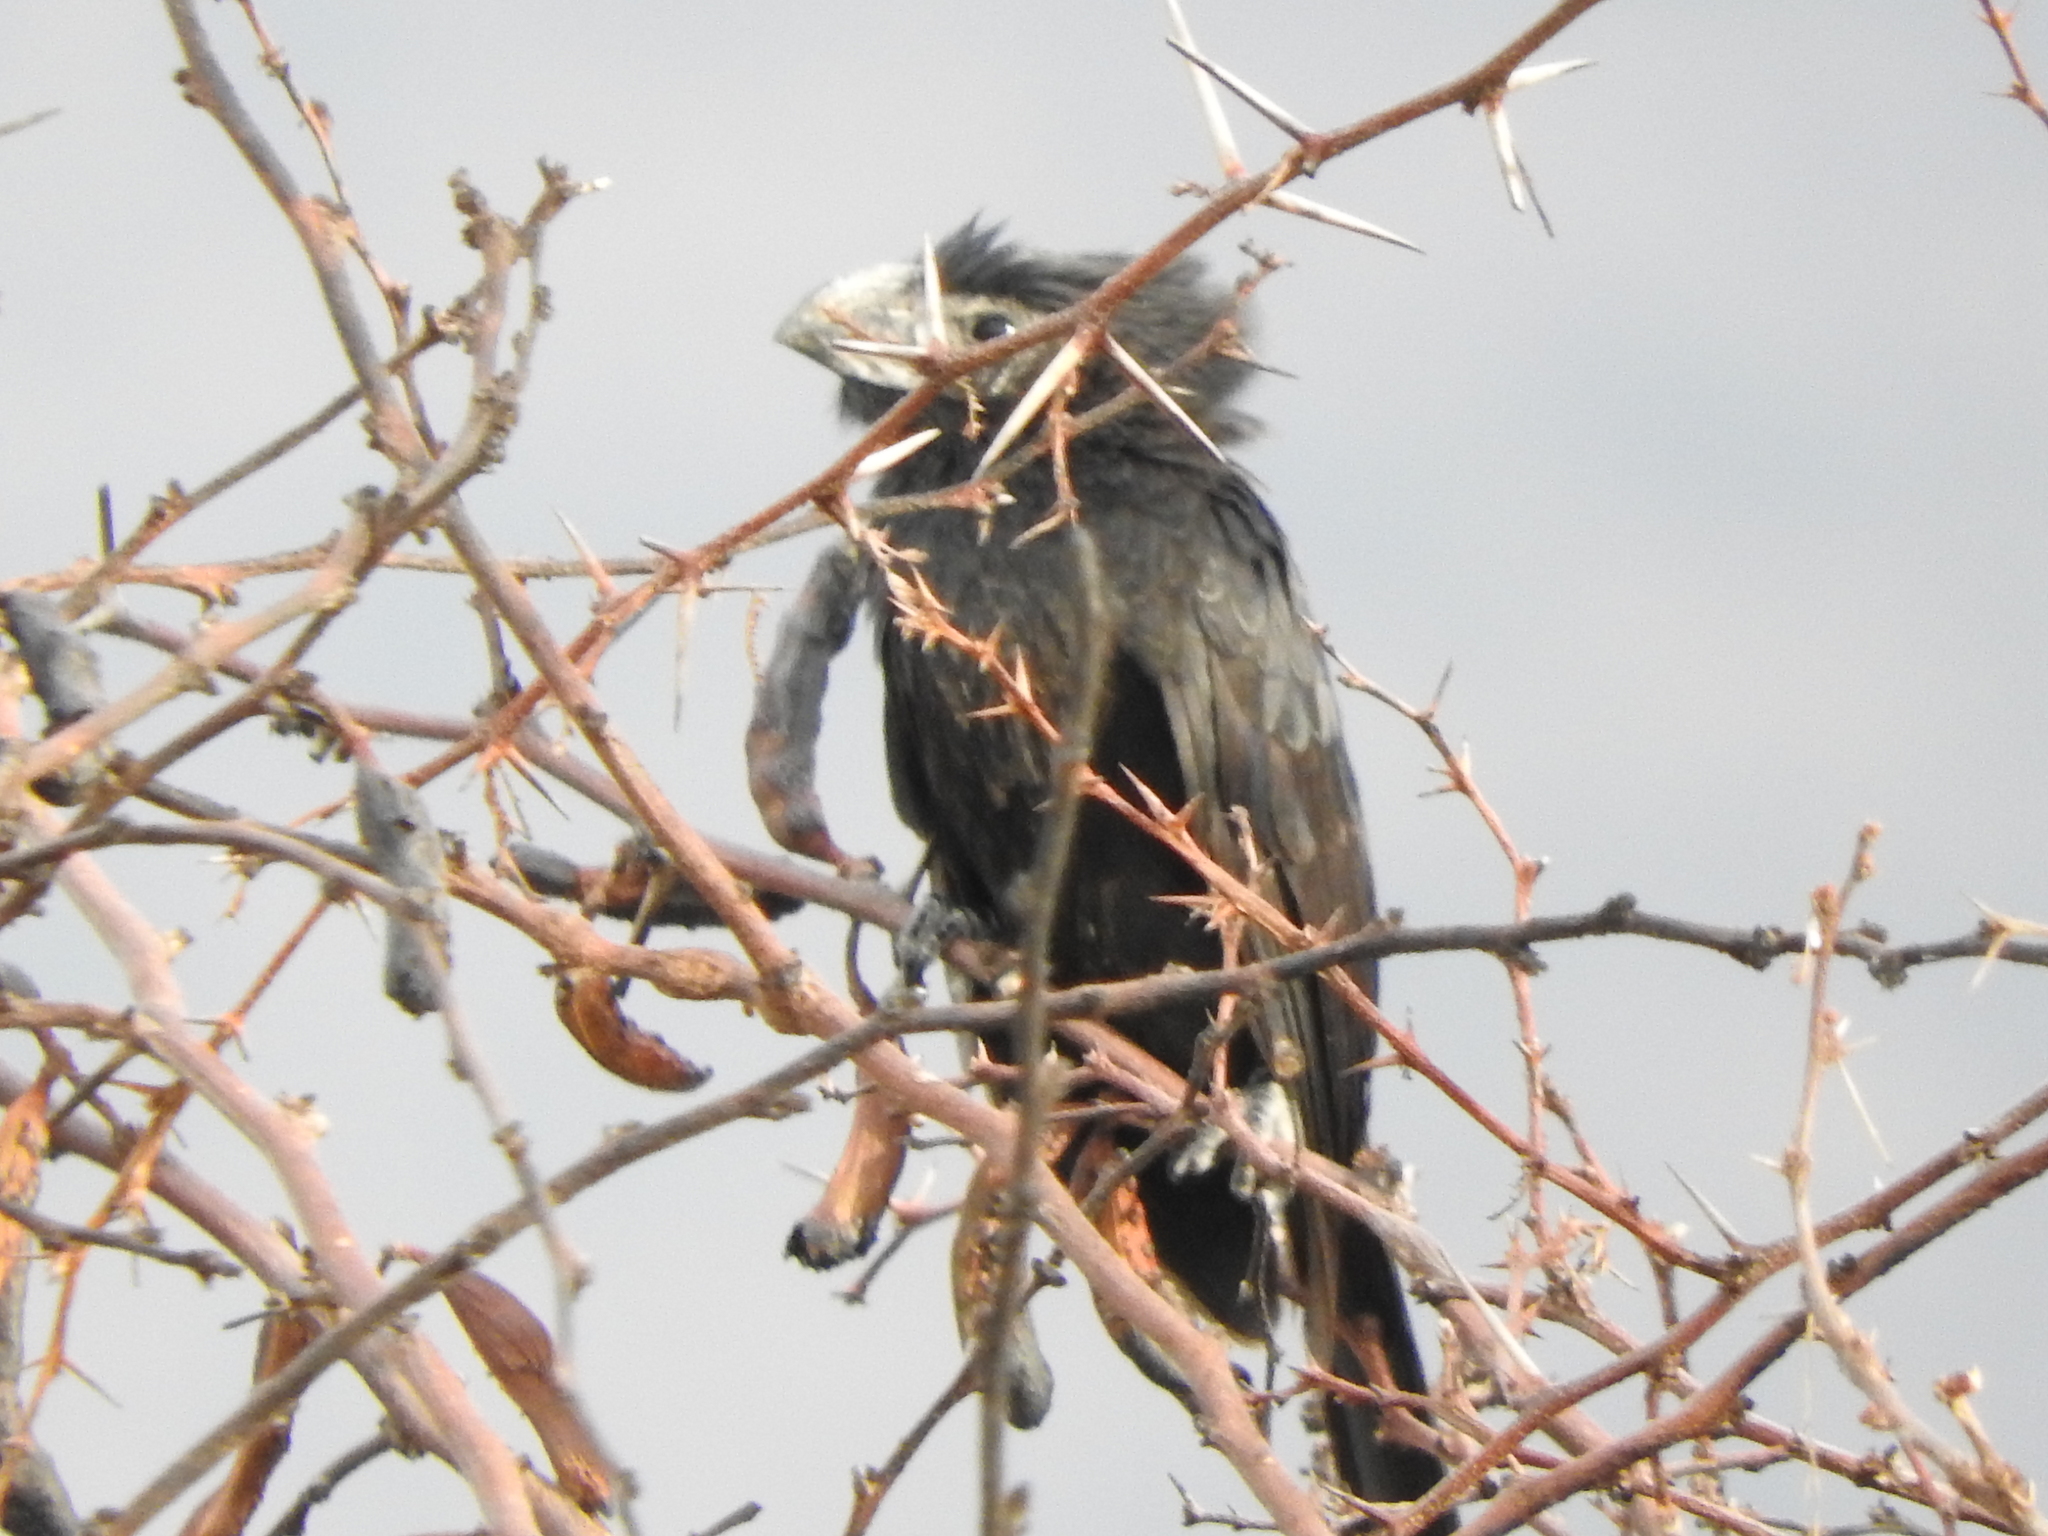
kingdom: Animalia
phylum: Chordata
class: Aves
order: Cuculiformes
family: Cuculidae
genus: Crotophaga
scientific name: Crotophaga sulcirostris
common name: Groove-billed ani
